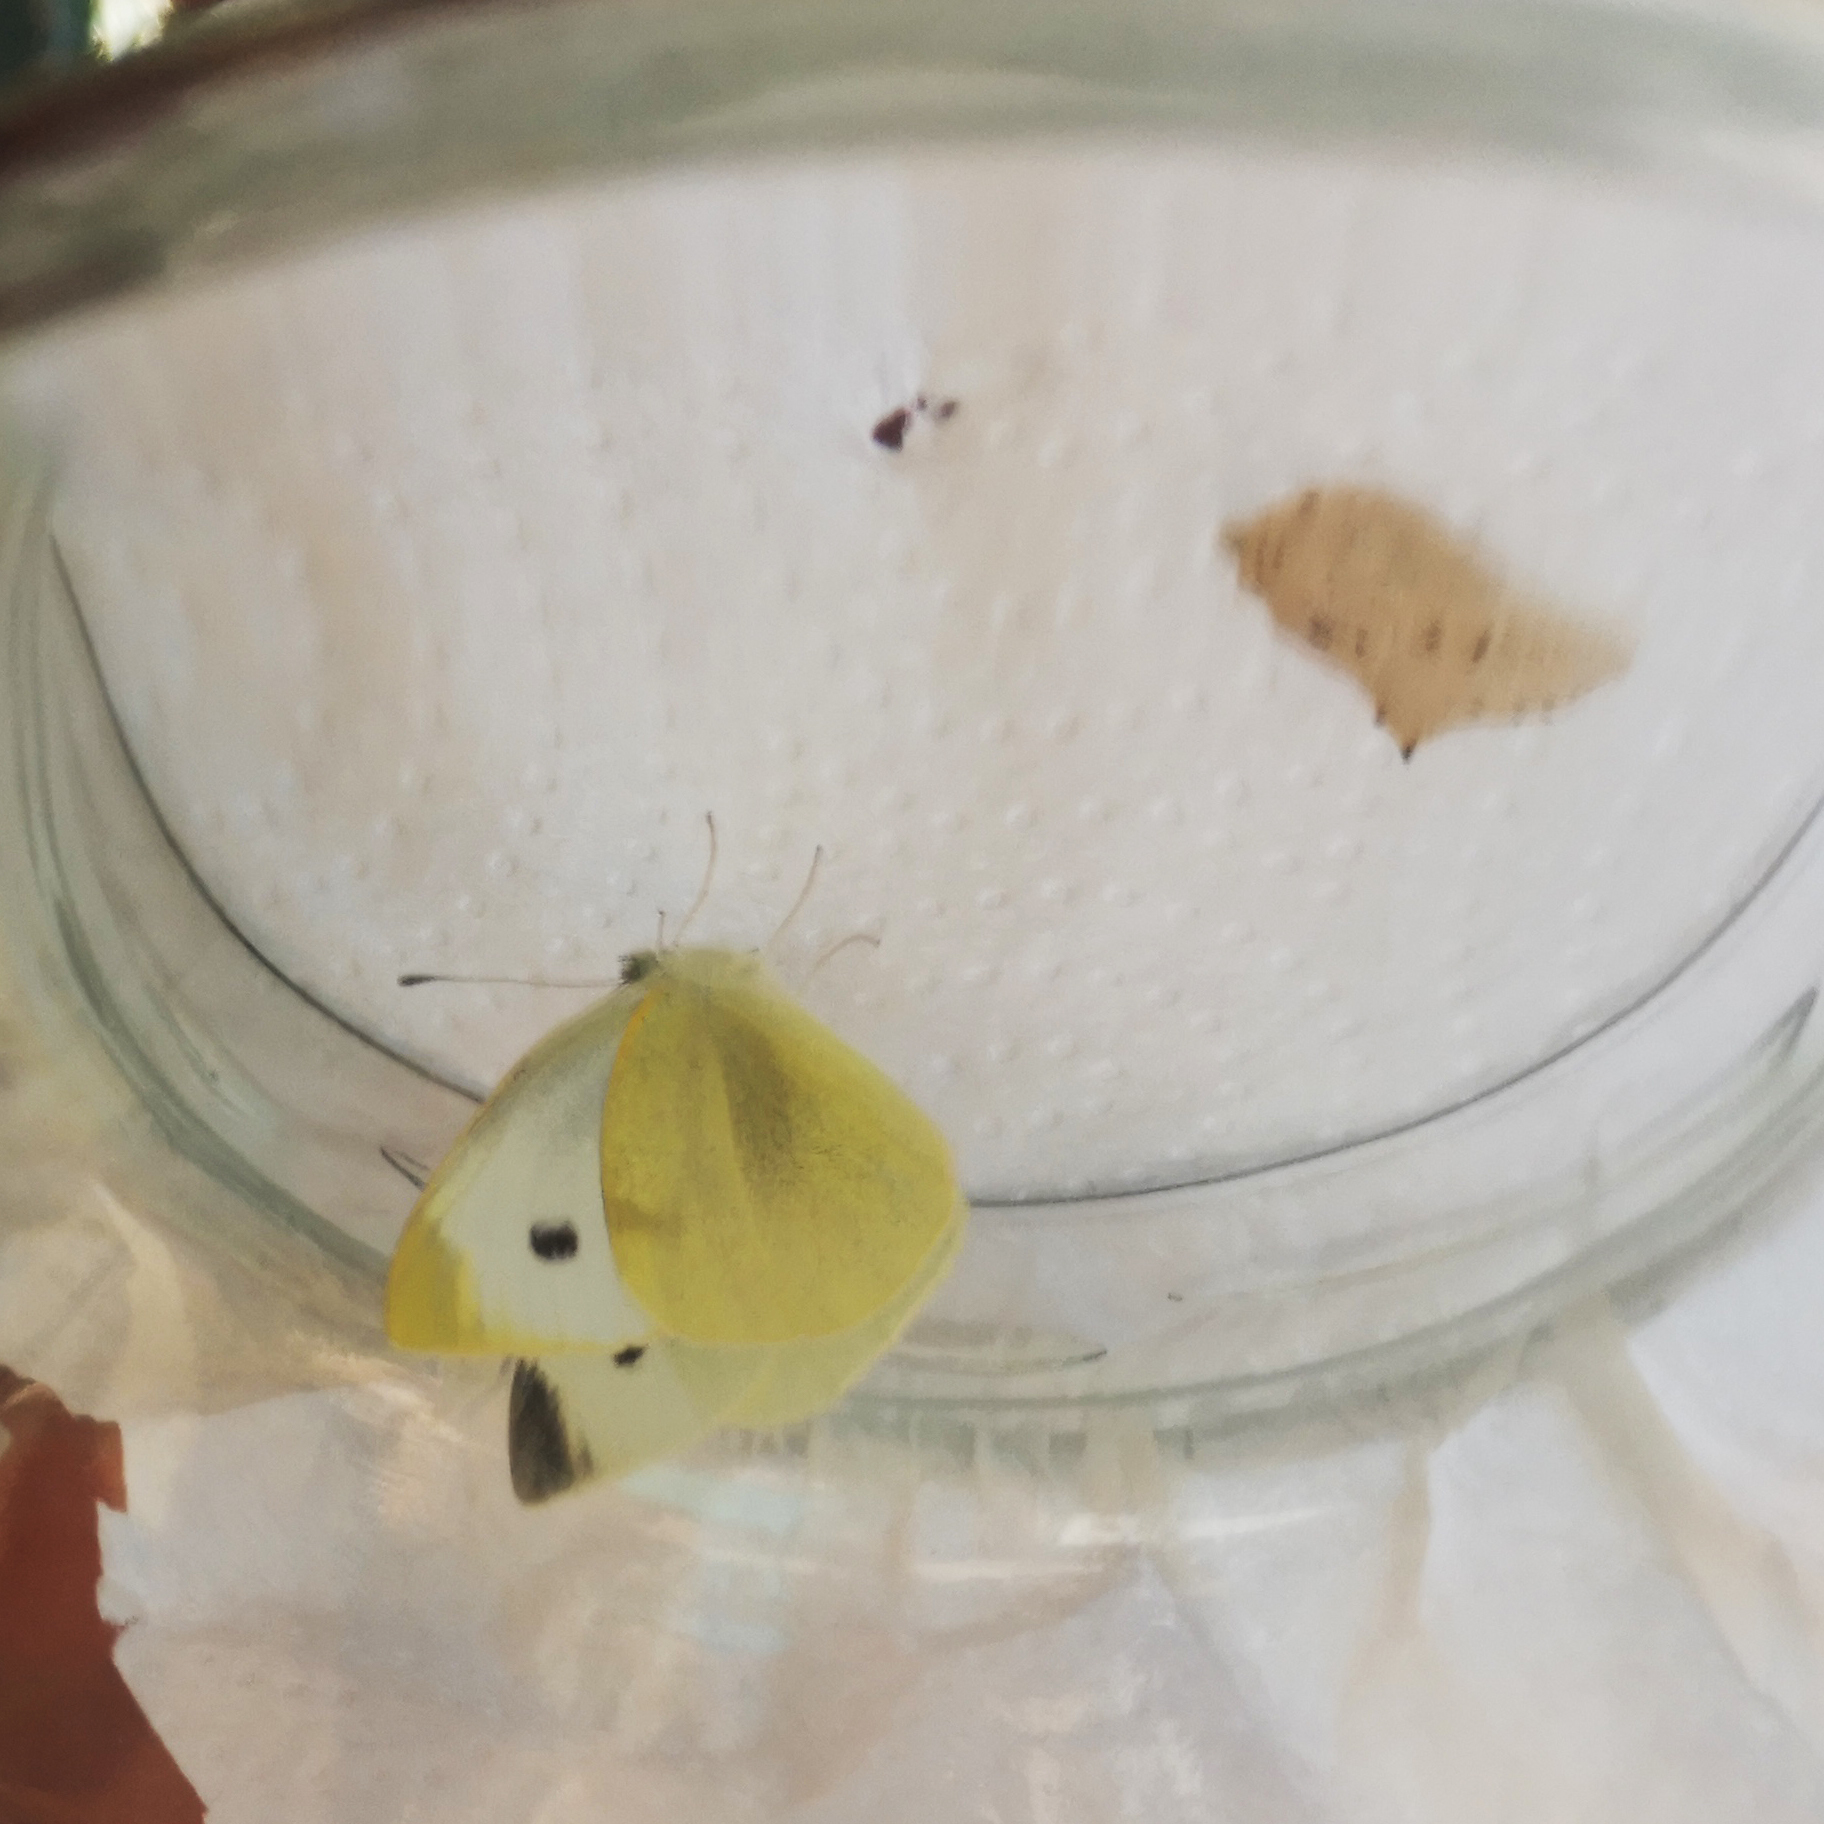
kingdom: Animalia
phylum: Arthropoda
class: Insecta
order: Lepidoptera
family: Pieridae
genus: Pieris
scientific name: Pieris rapae
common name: Small white
